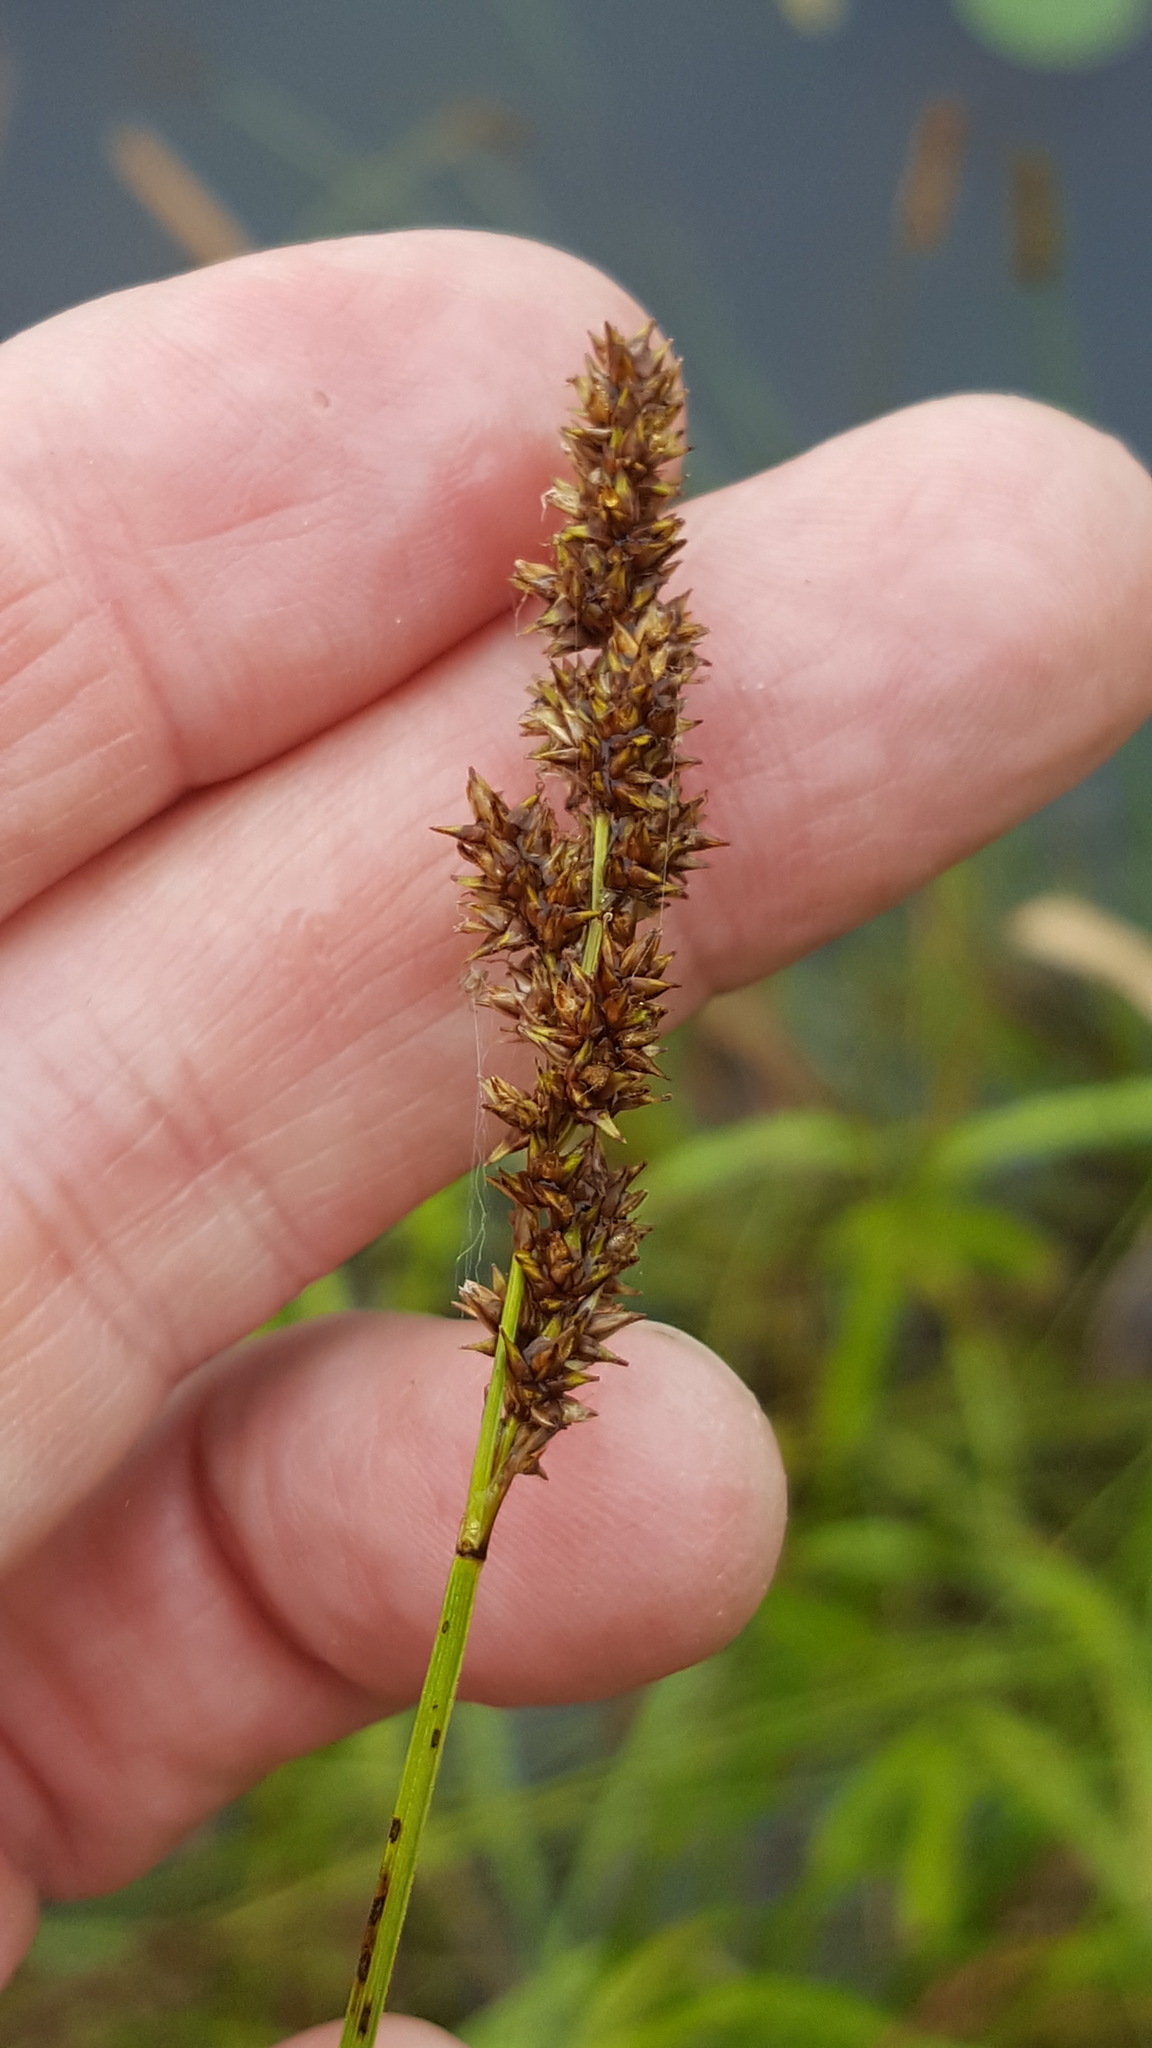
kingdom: Plantae
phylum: Tracheophyta
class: Liliopsida
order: Poales
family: Cyperaceae
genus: Carex
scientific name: Carex diandra
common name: Lesser tussock-sedge
